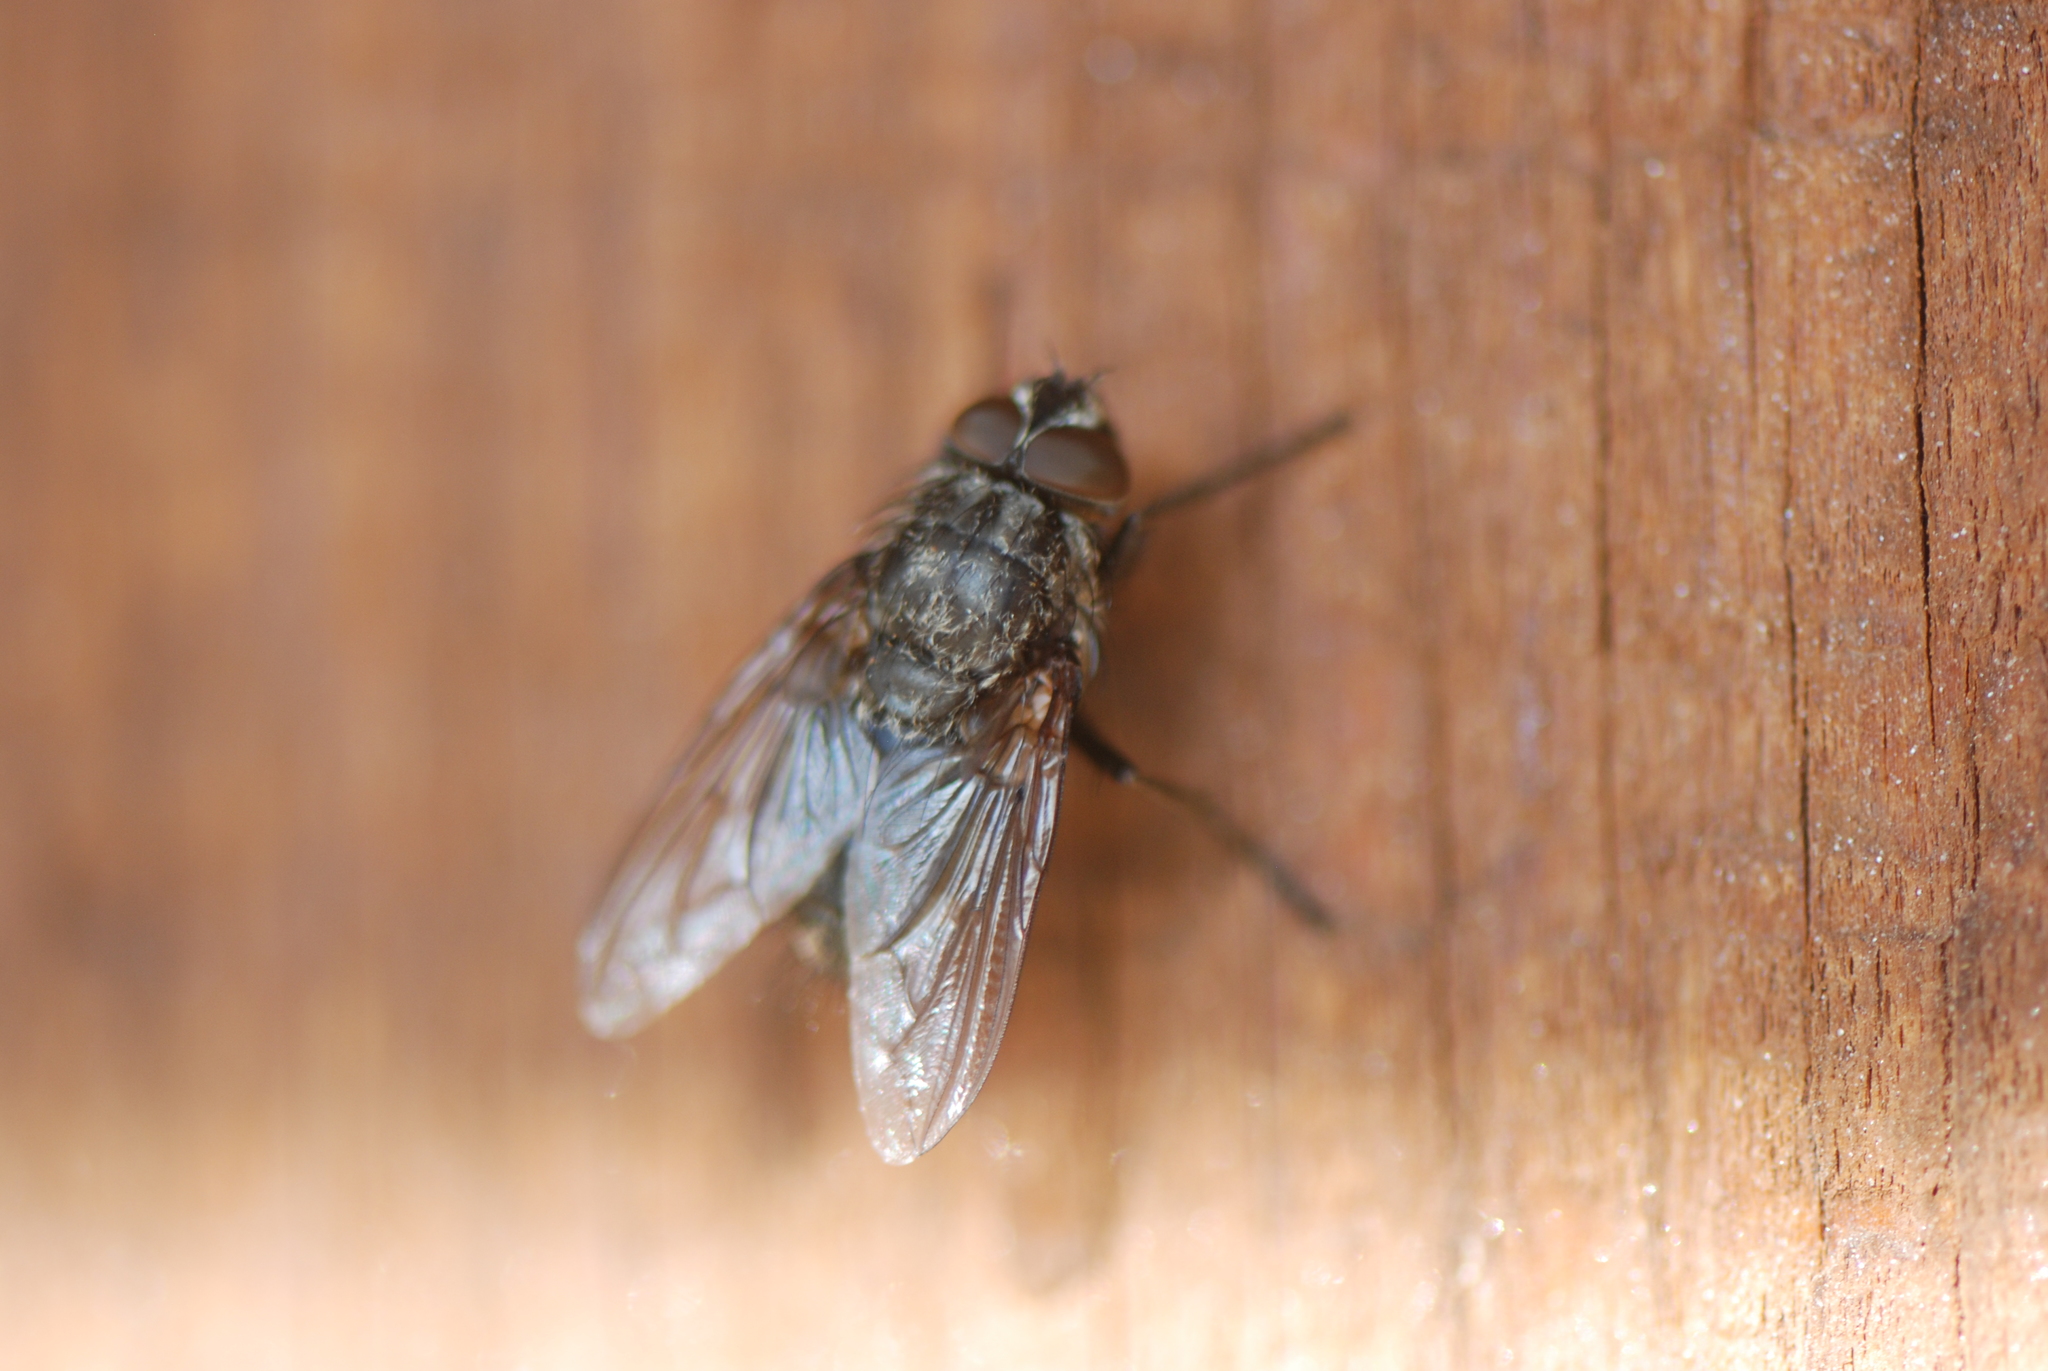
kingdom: Animalia
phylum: Arthropoda
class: Insecta
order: Diptera
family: Polleniidae
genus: Pollenia
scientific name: Pollenia vagabunda
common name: Vagabund cluster fly
